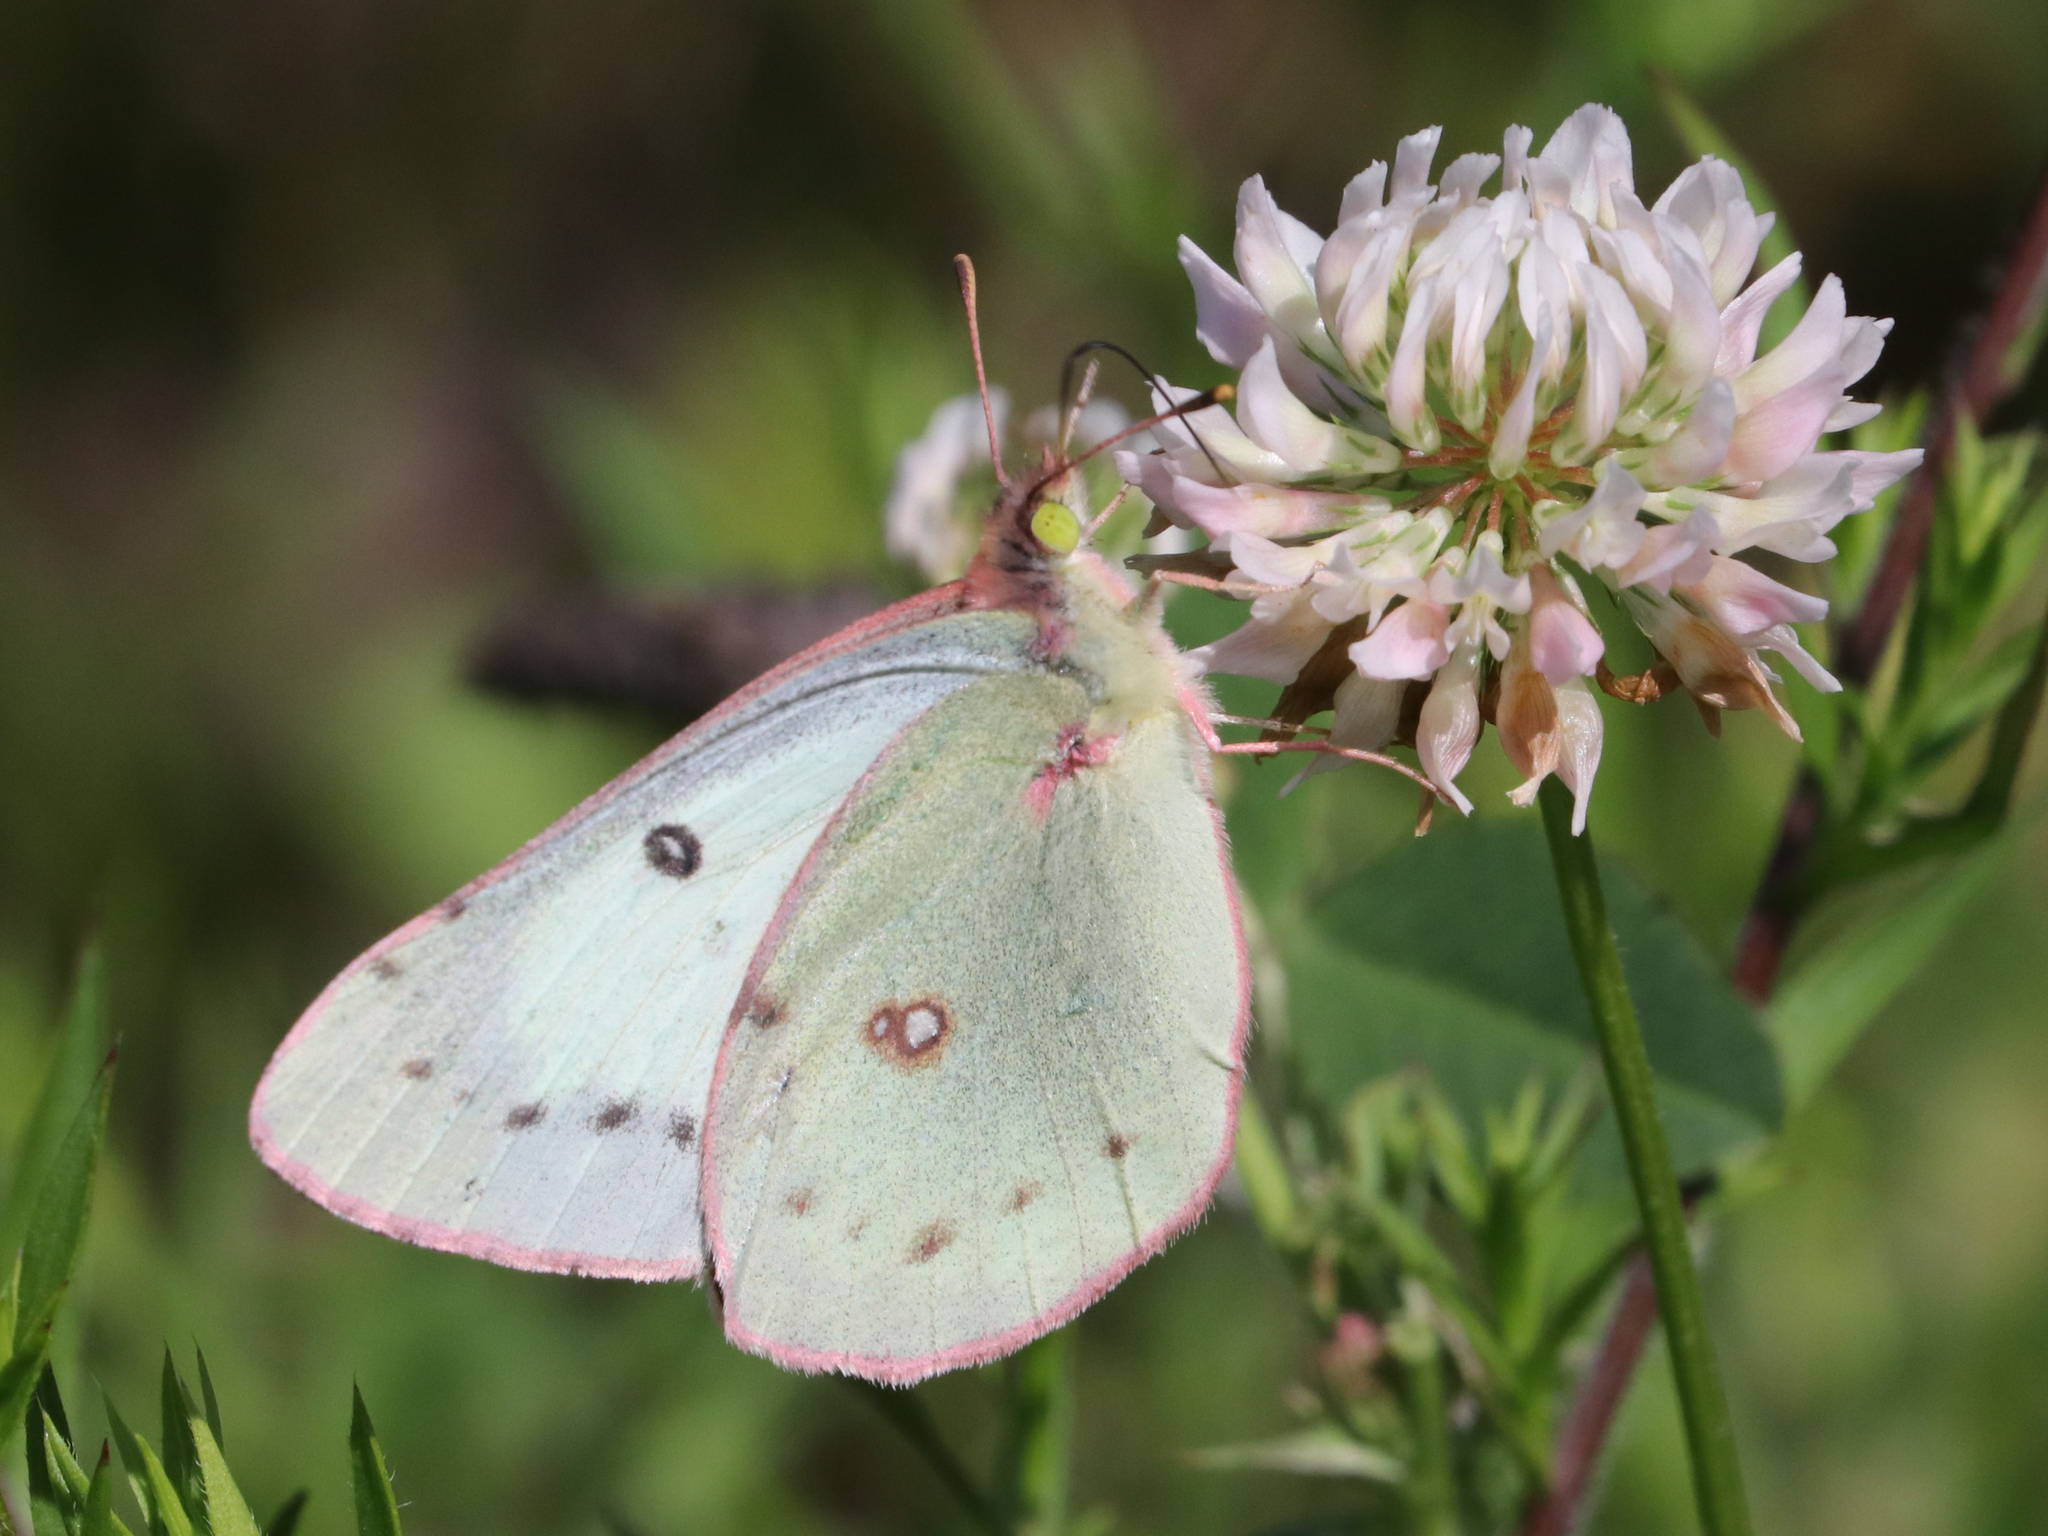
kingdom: Animalia
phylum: Arthropoda
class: Insecta
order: Lepidoptera
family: Pieridae
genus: Colias
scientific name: Colias philodice
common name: Clouded sulphur
